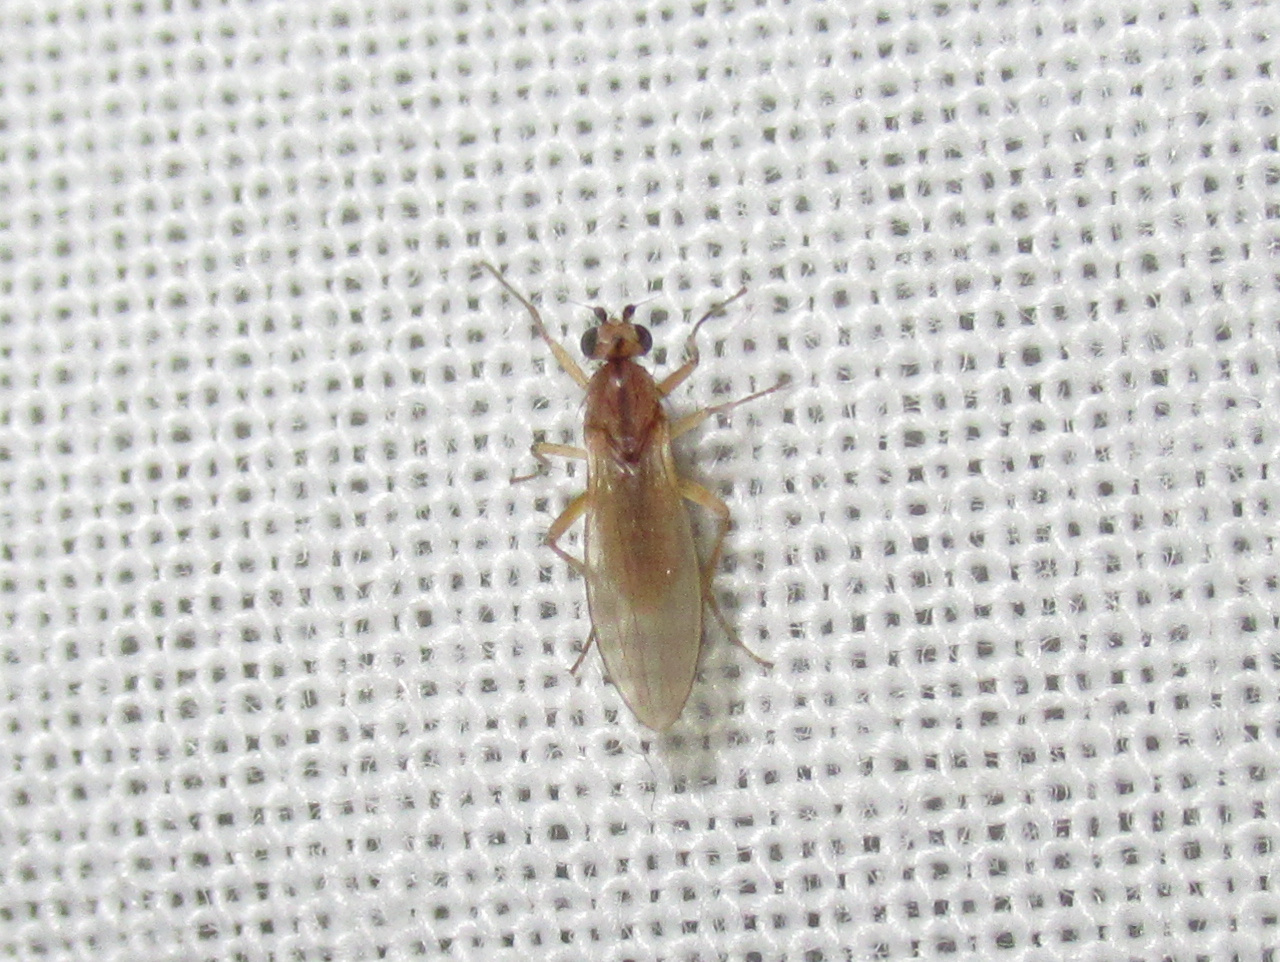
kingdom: Animalia
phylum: Arthropoda
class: Insecta
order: Diptera
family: Lonchopteridae
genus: Lonchoptera
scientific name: Lonchoptera bifurcata
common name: Spear-winged fly
